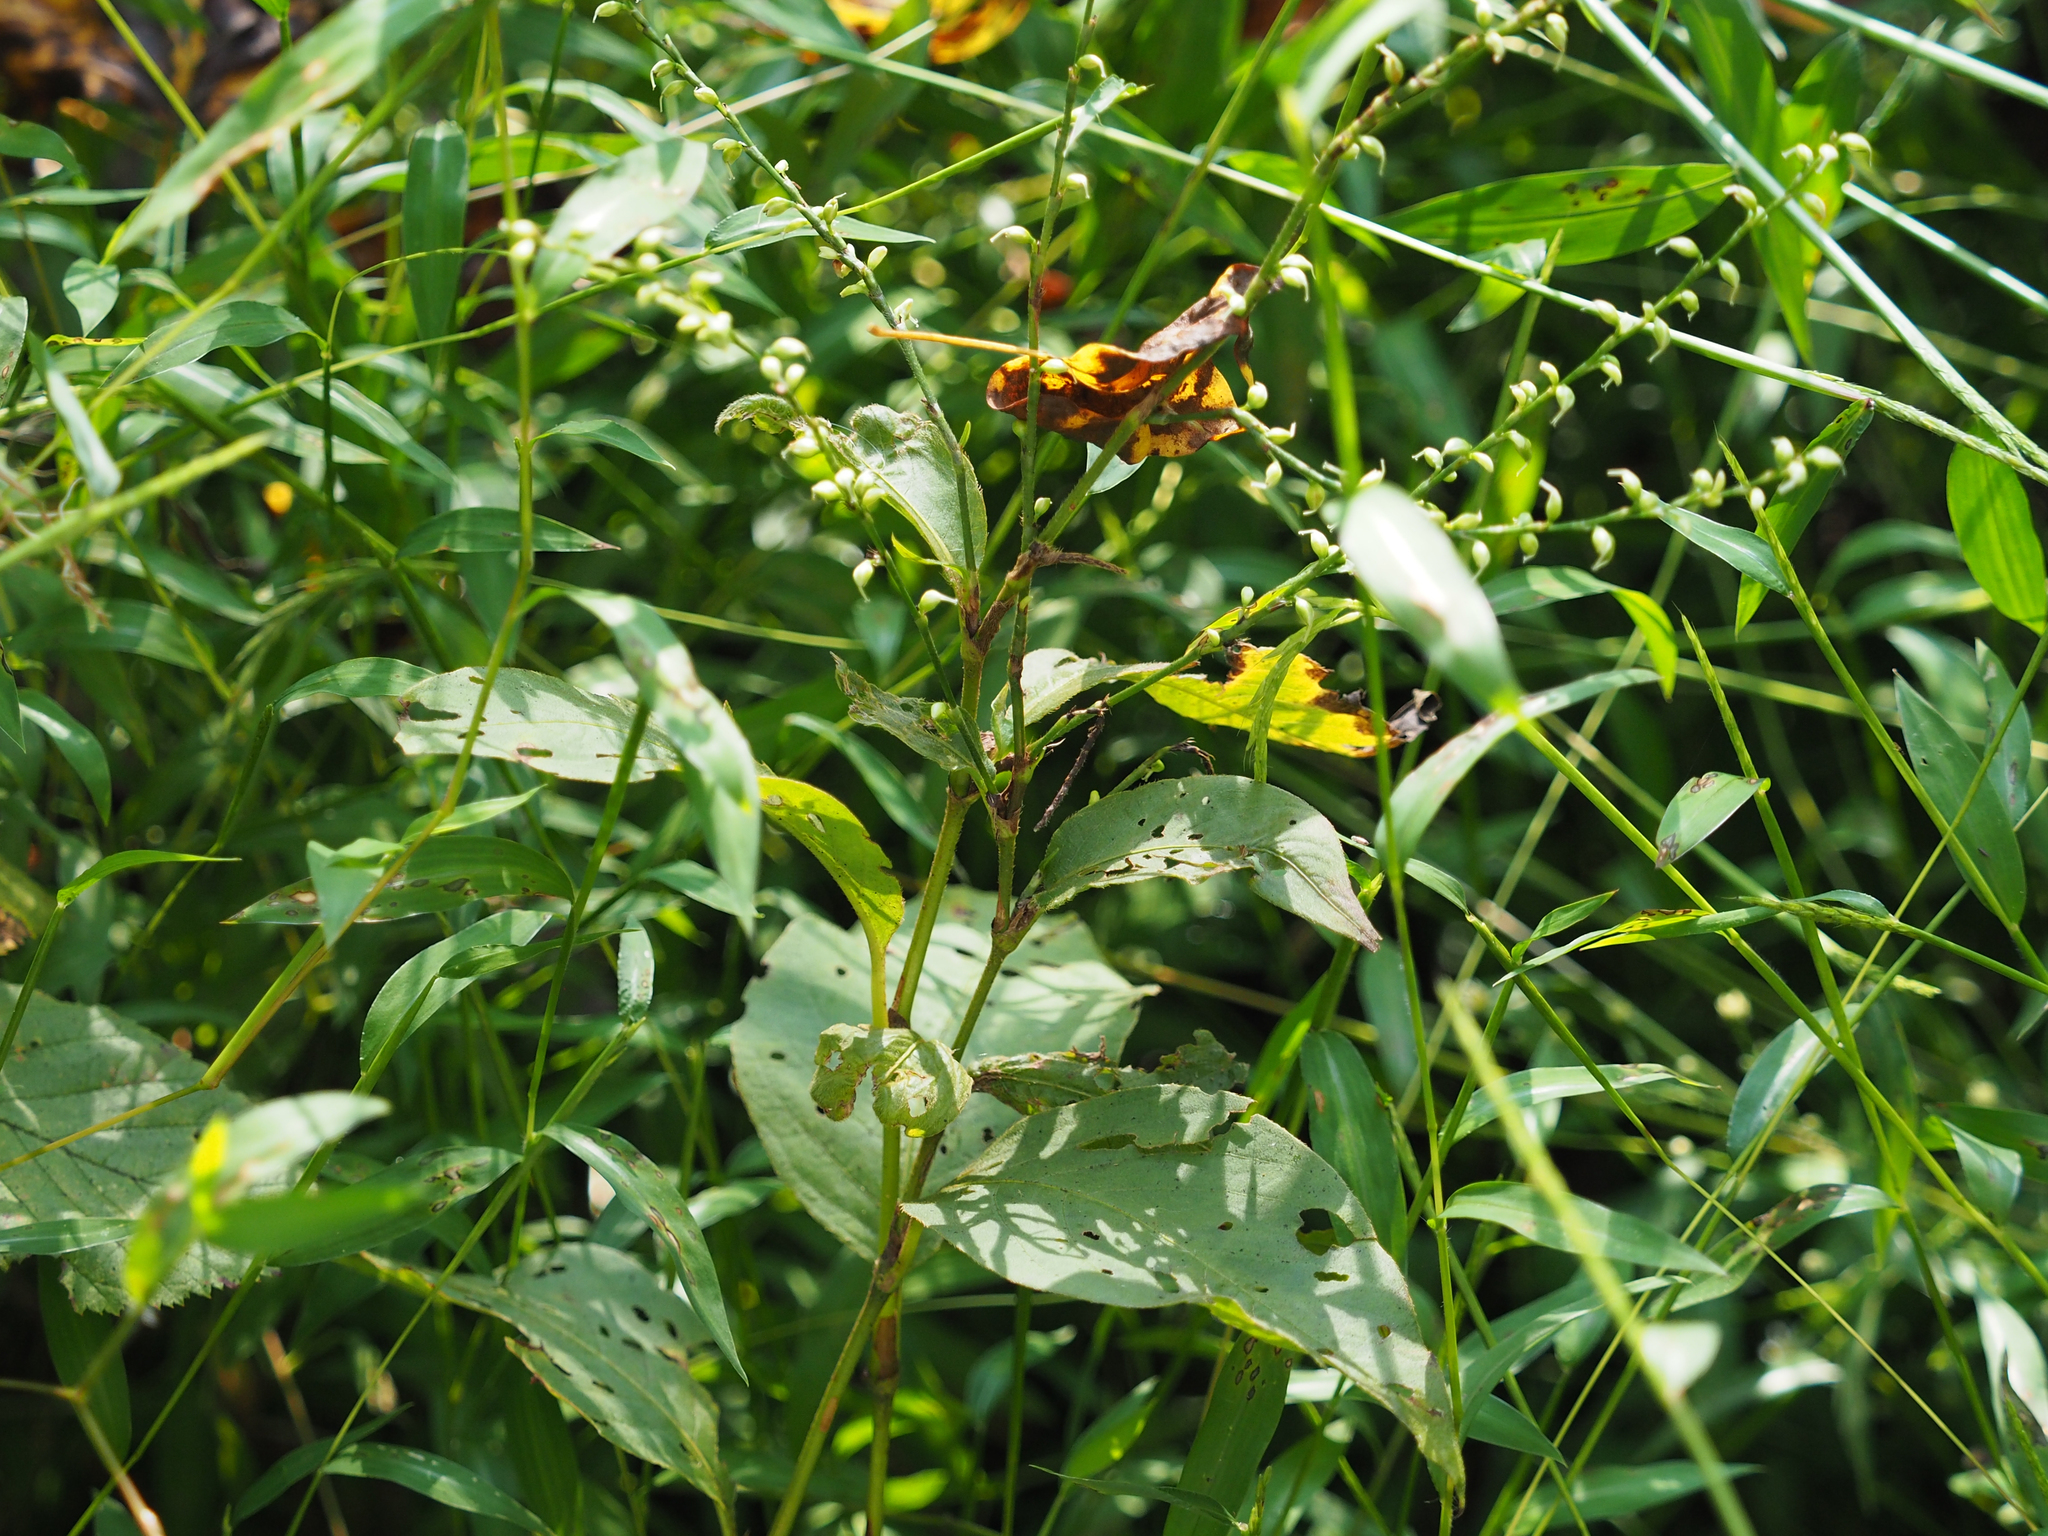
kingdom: Plantae
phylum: Tracheophyta
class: Magnoliopsida
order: Caryophyllales
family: Polygonaceae
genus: Persicaria
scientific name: Persicaria virginiana
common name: Jumpseed
